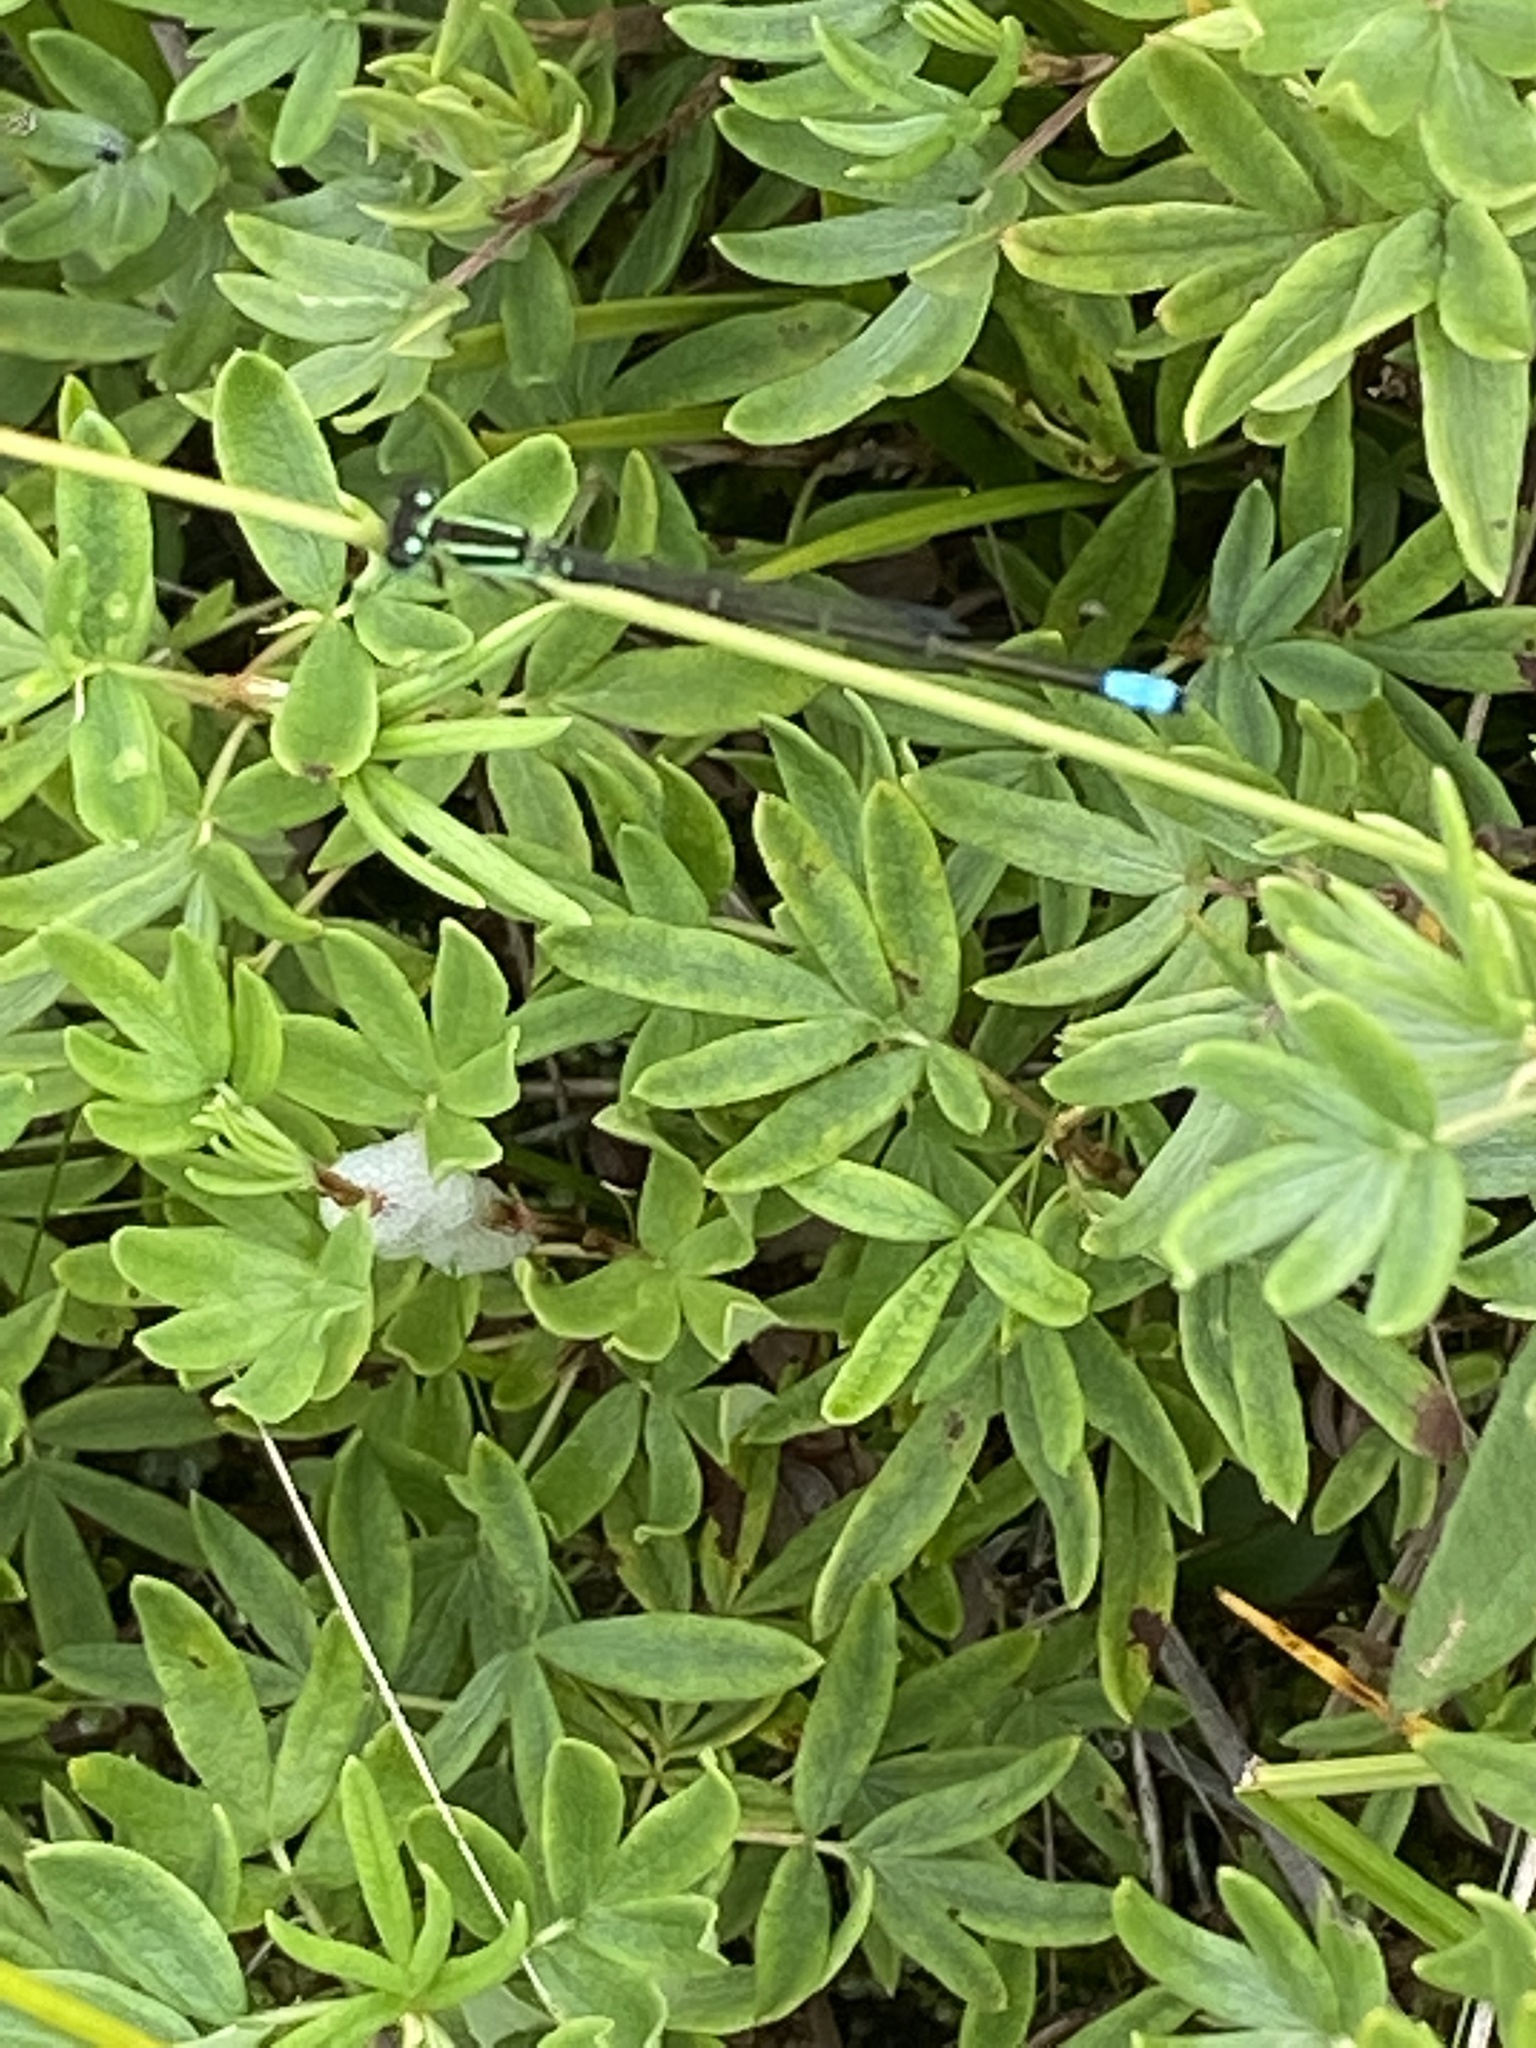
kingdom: Animalia
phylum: Arthropoda
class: Insecta
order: Odonata
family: Coenagrionidae
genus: Ischnura
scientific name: Ischnura verticalis
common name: Eastern forktail
